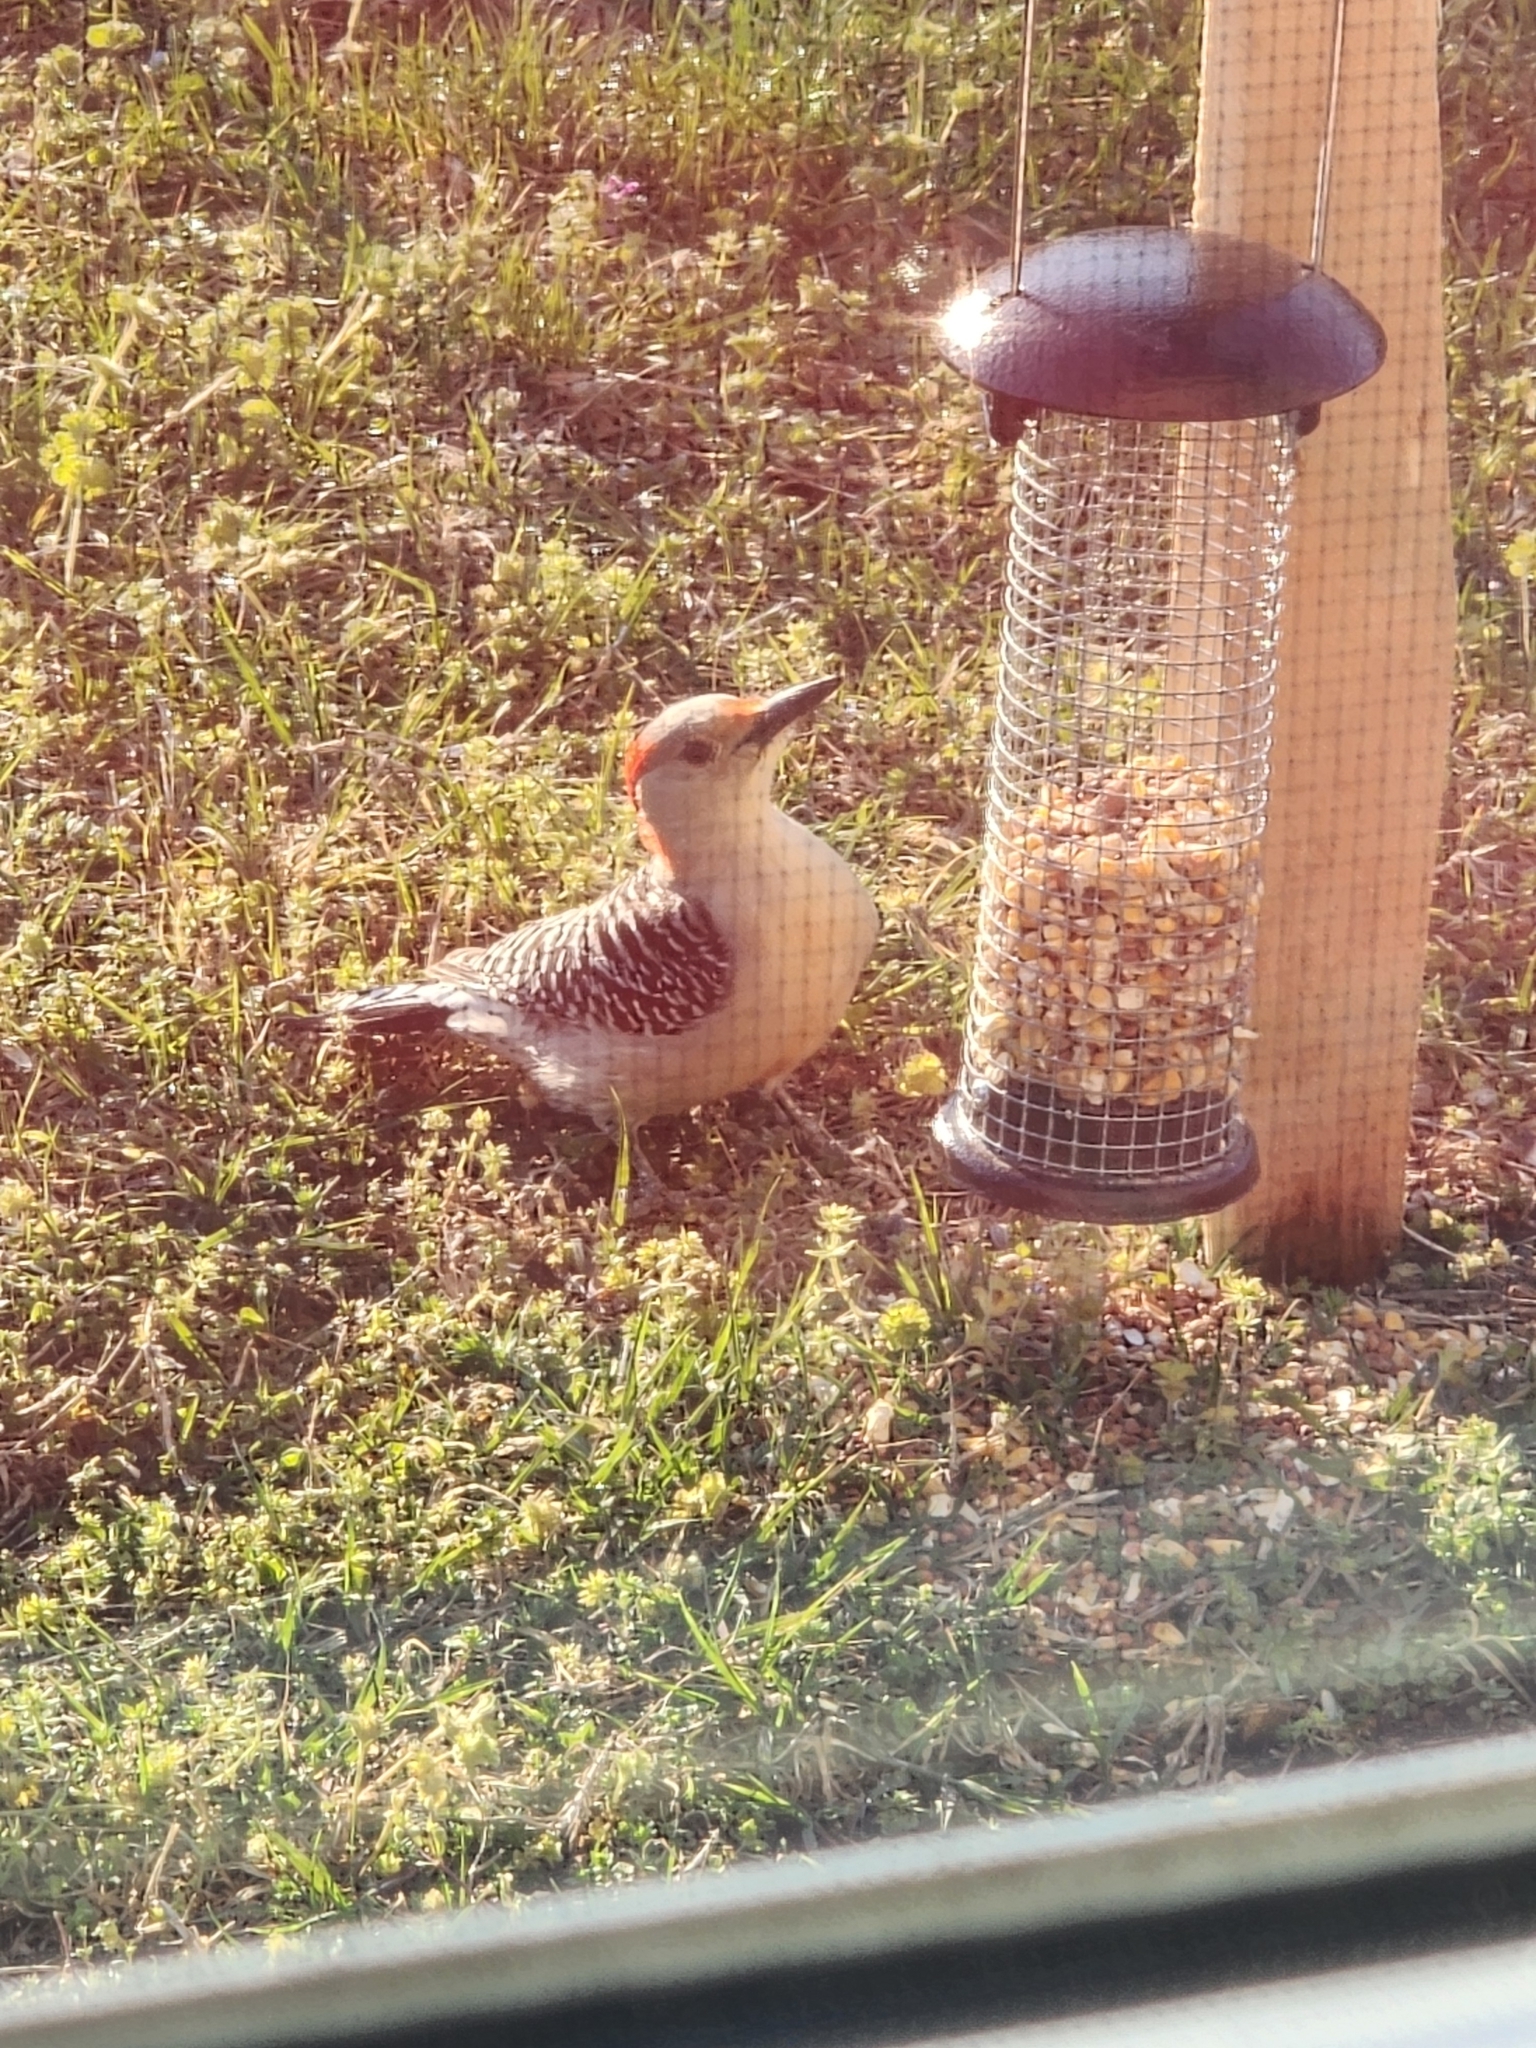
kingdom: Animalia
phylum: Chordata
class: Aves
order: Piciformes
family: Picidae
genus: Melanerpes
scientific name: Melanerpes carolinus
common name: Red-bellied woodpecker
